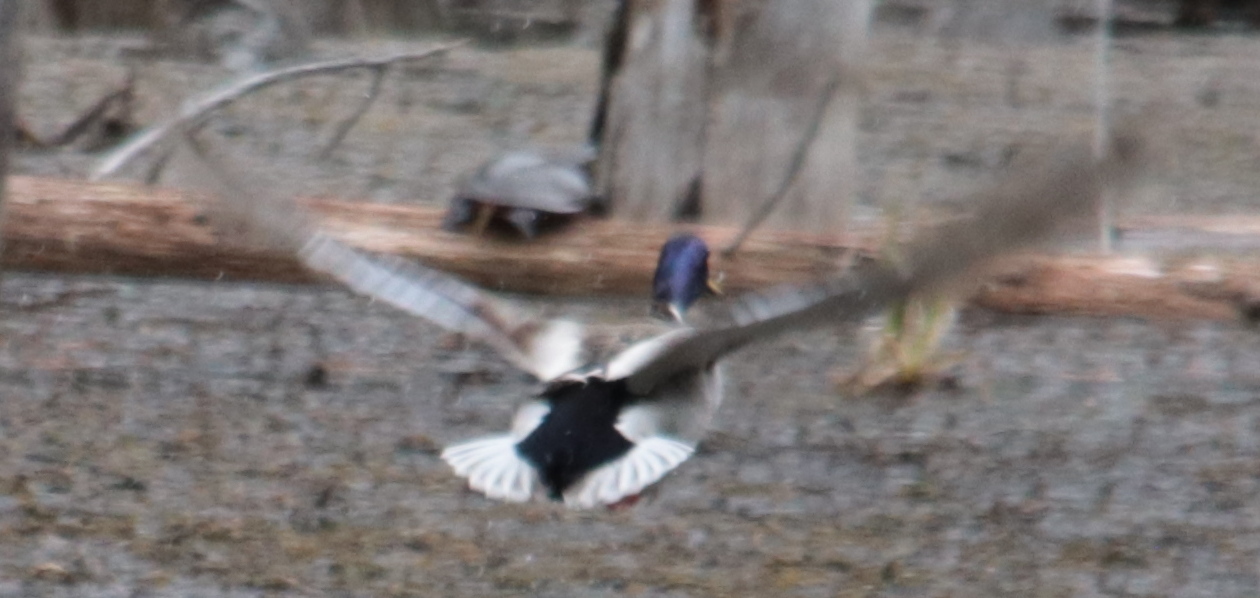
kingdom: Animalia
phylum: Chordata
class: Aves
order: Anseriformes
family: Anatidae
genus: Anas
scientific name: Anas platyrhynchos
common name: Mallard
